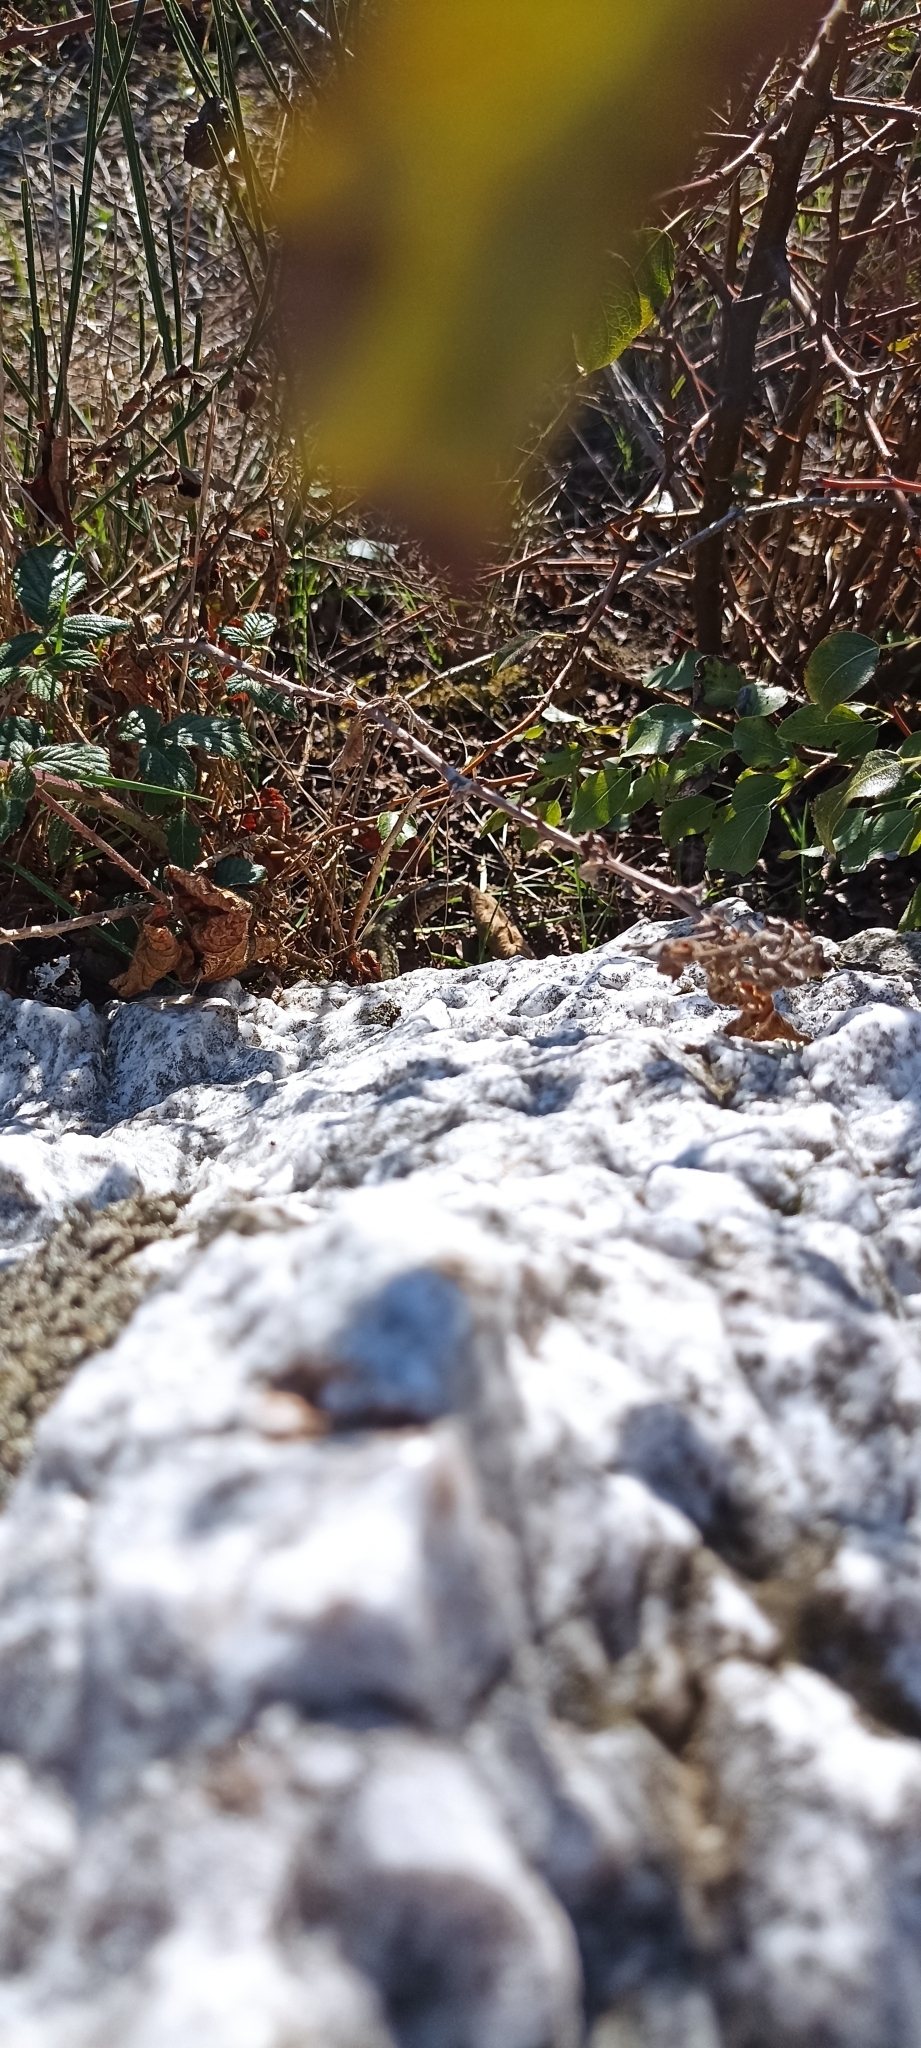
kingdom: Animalia
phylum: Chordata
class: Squamata
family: Lacertidae
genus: Podarcis
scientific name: Podarcis muralis
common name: Common wall lizard
